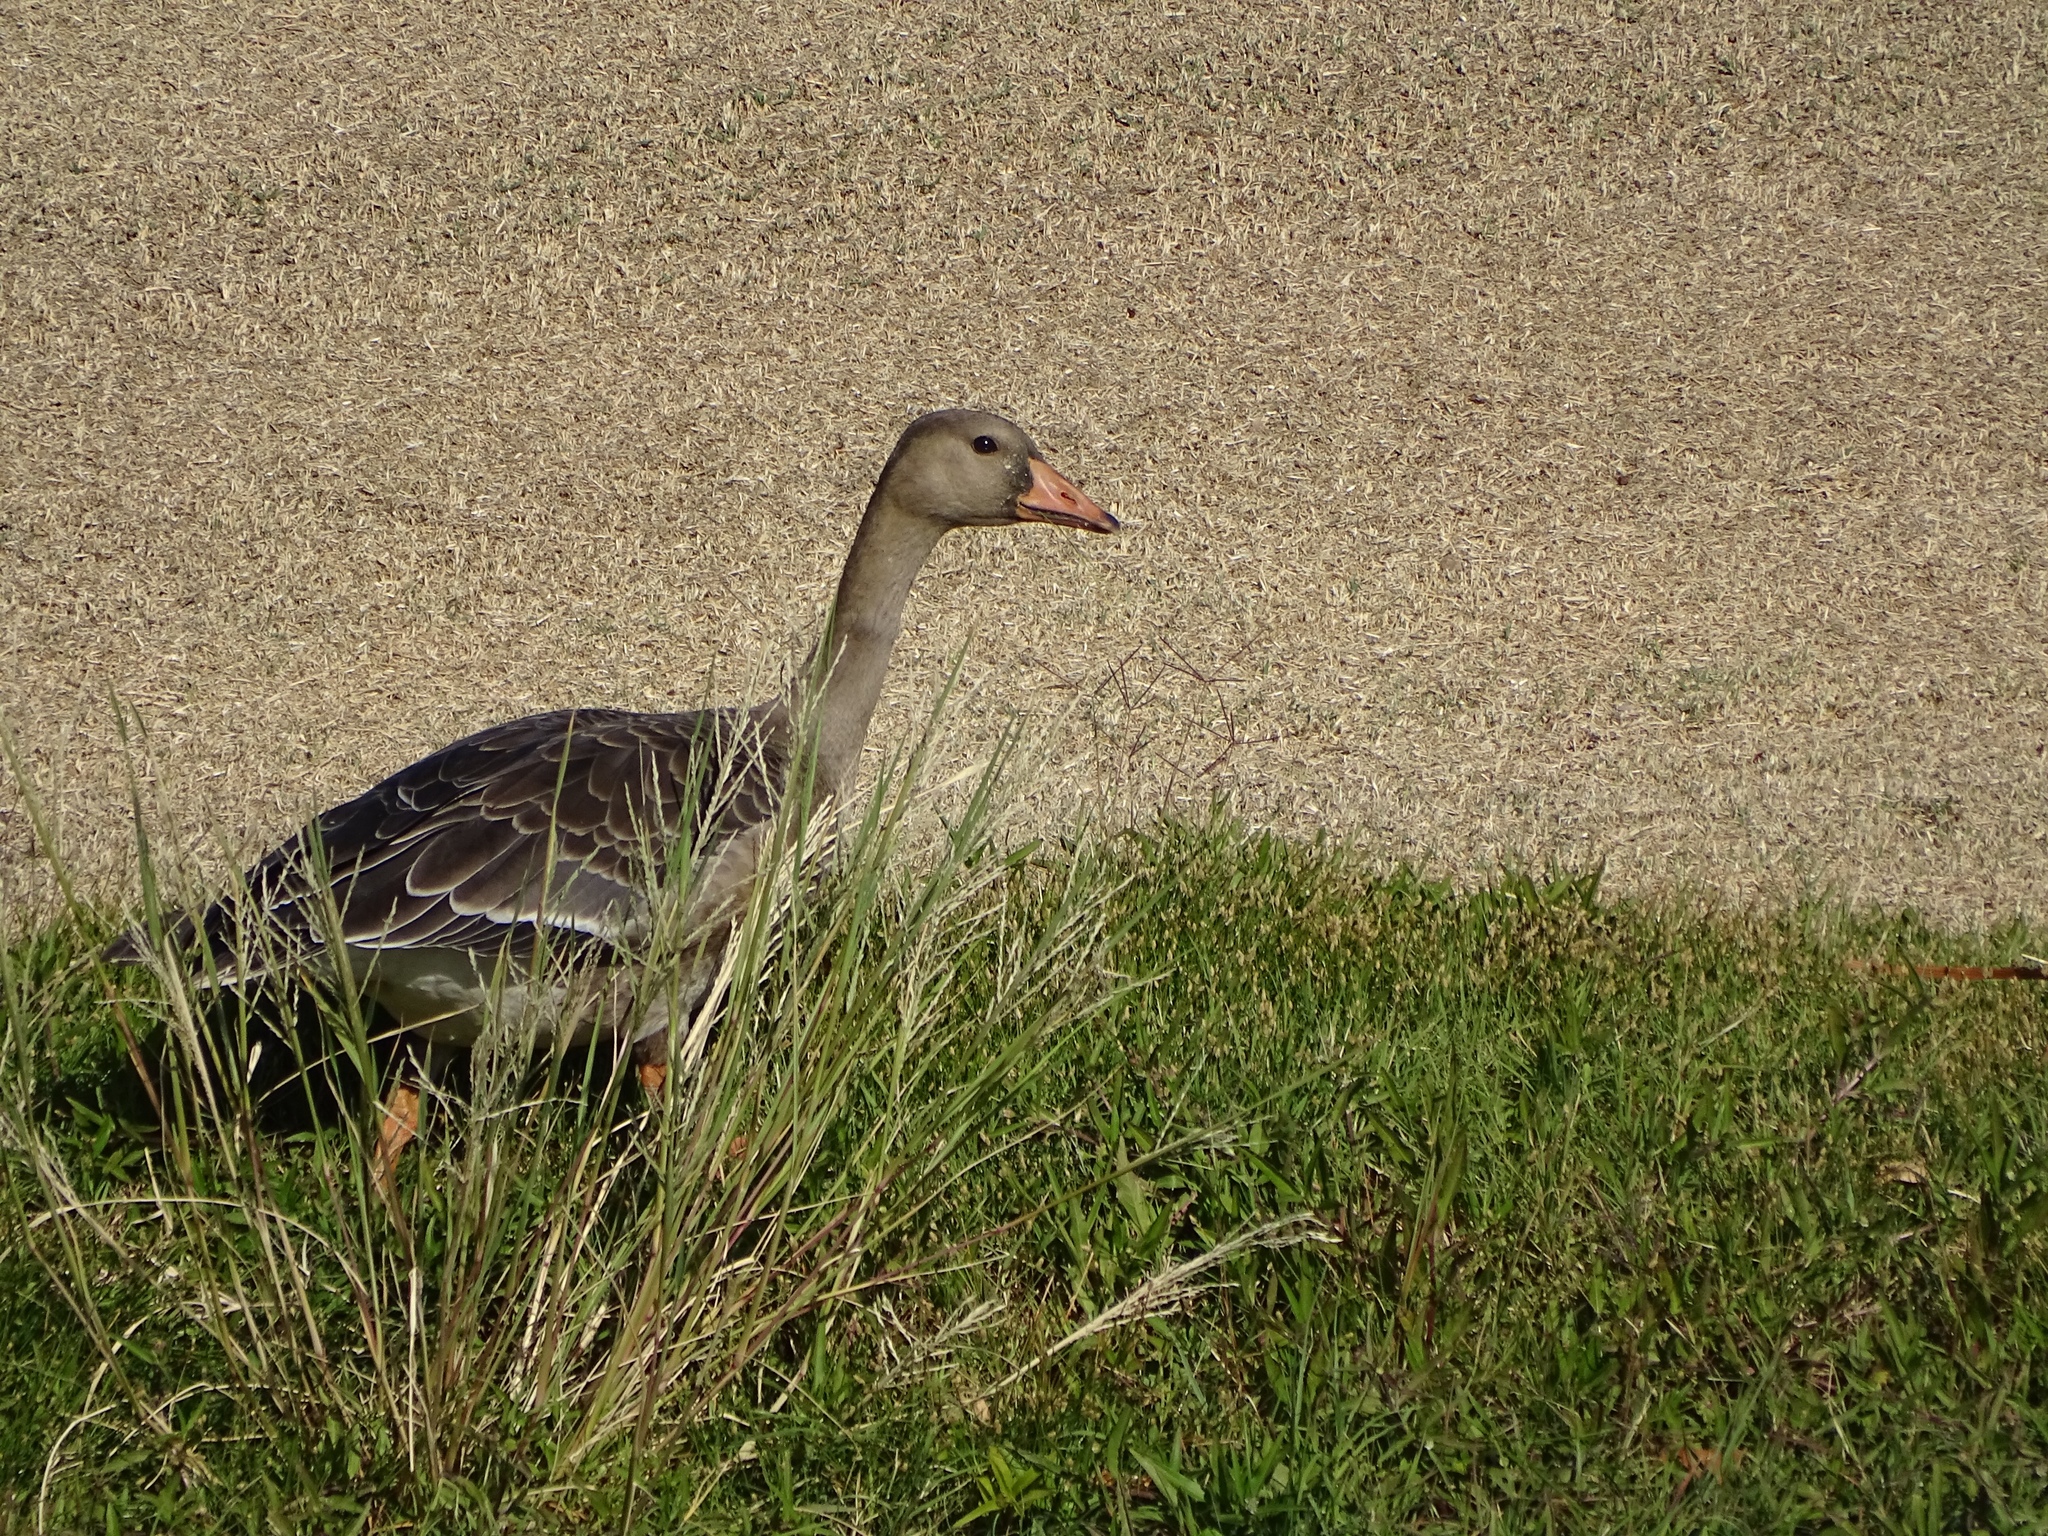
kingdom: Animalia
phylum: Chordata
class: Aves
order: Anseriformes
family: Anatidae
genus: Anser
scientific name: Anser albifrons
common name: Greater white-fronted goose
